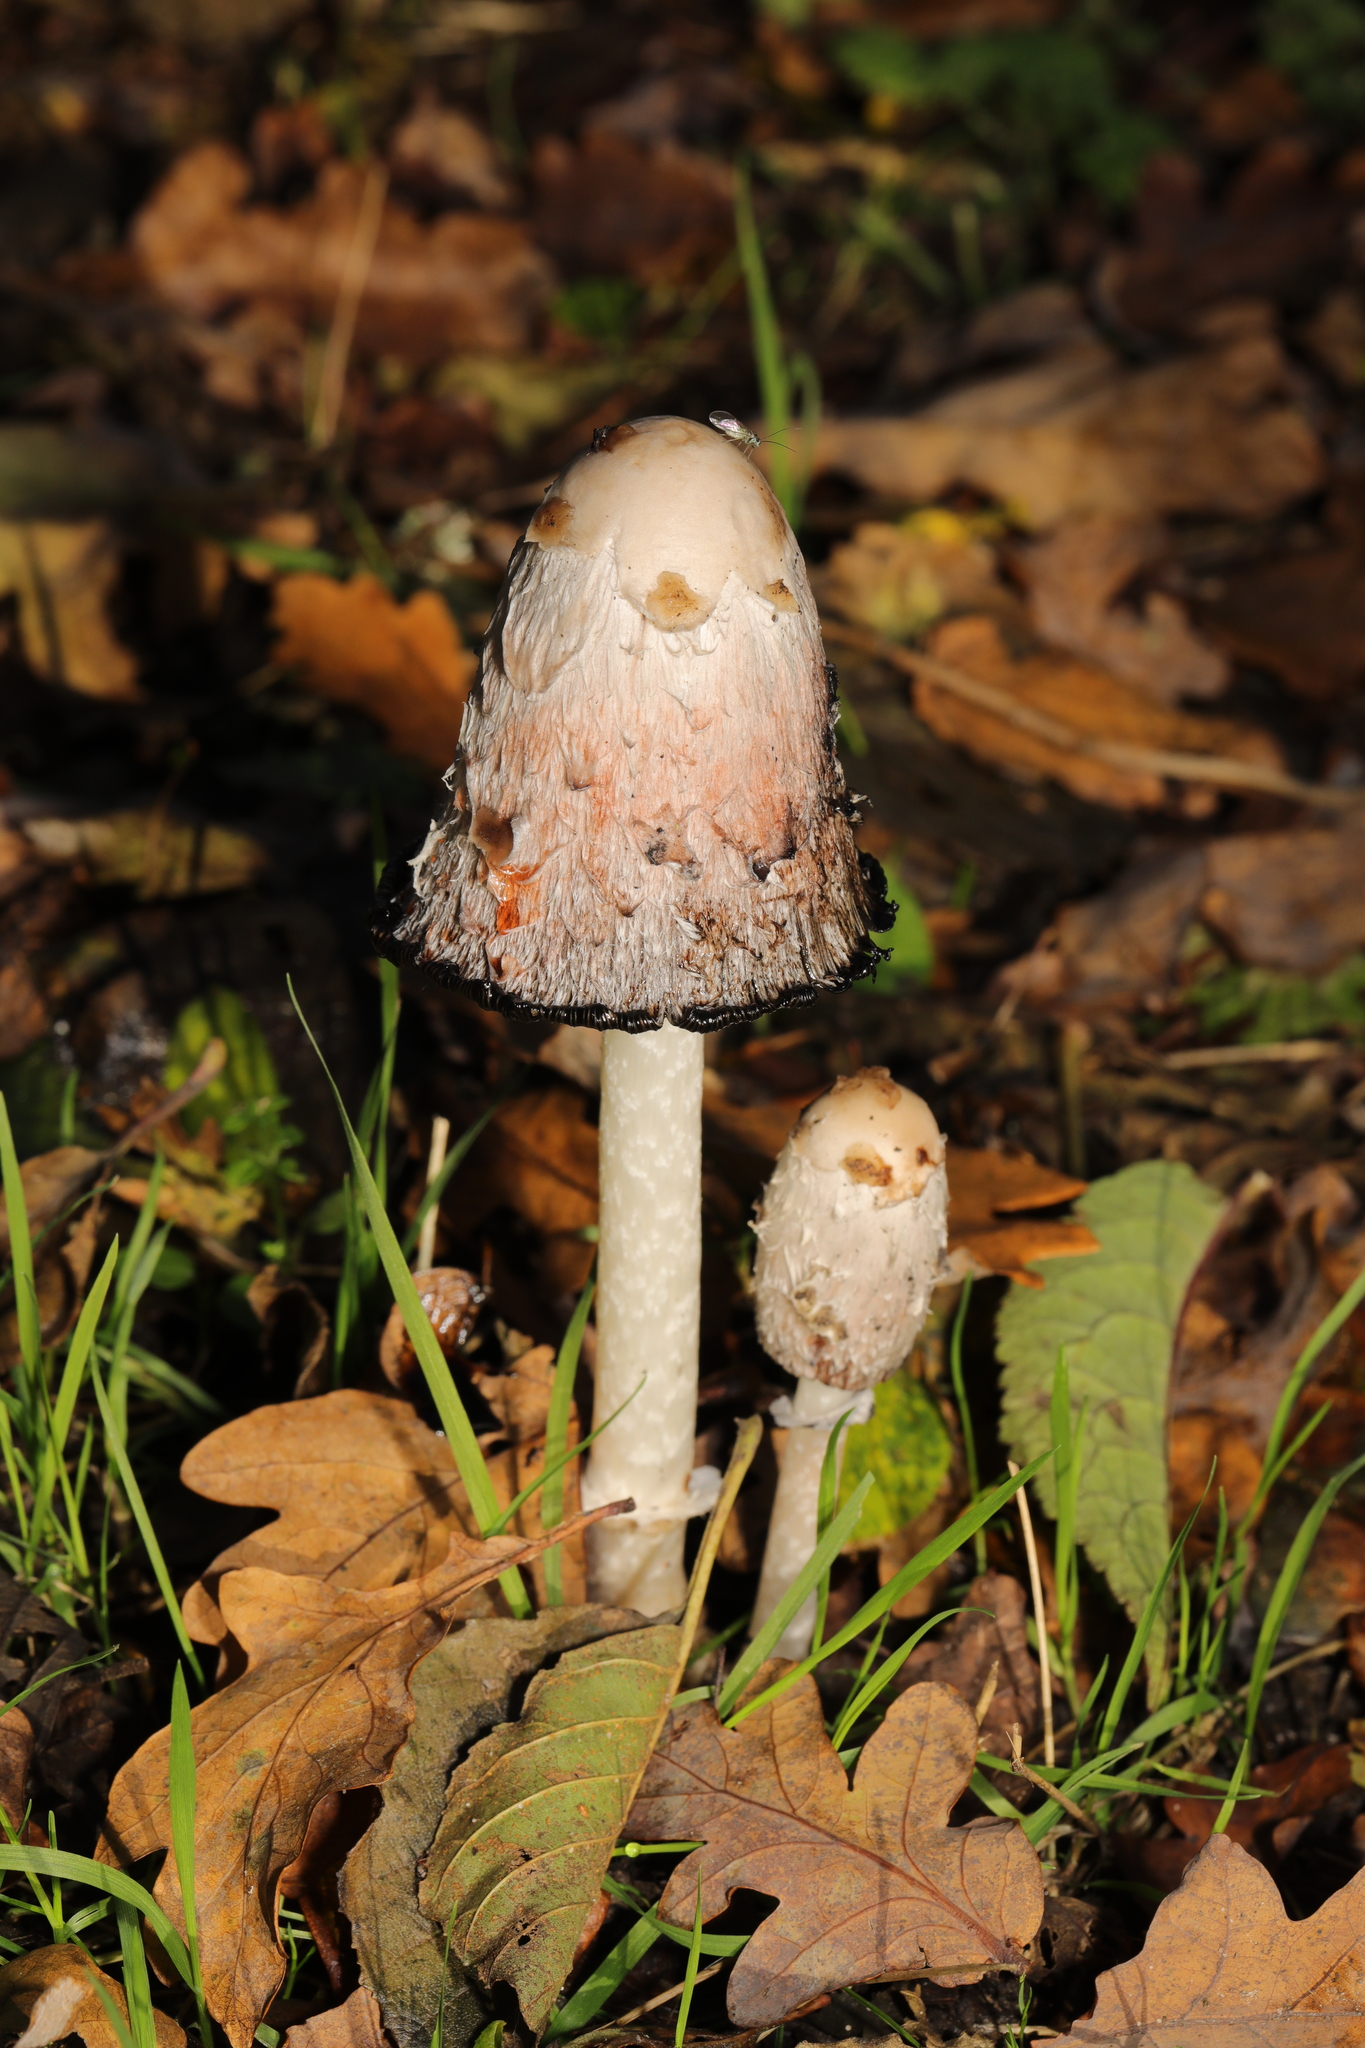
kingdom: Fungi
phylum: Basidiomycota
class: Agaricomycetes
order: Agaricales
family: Agaricaceae
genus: Coprinus
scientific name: Coprinus comatus
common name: Lawyer's wig
